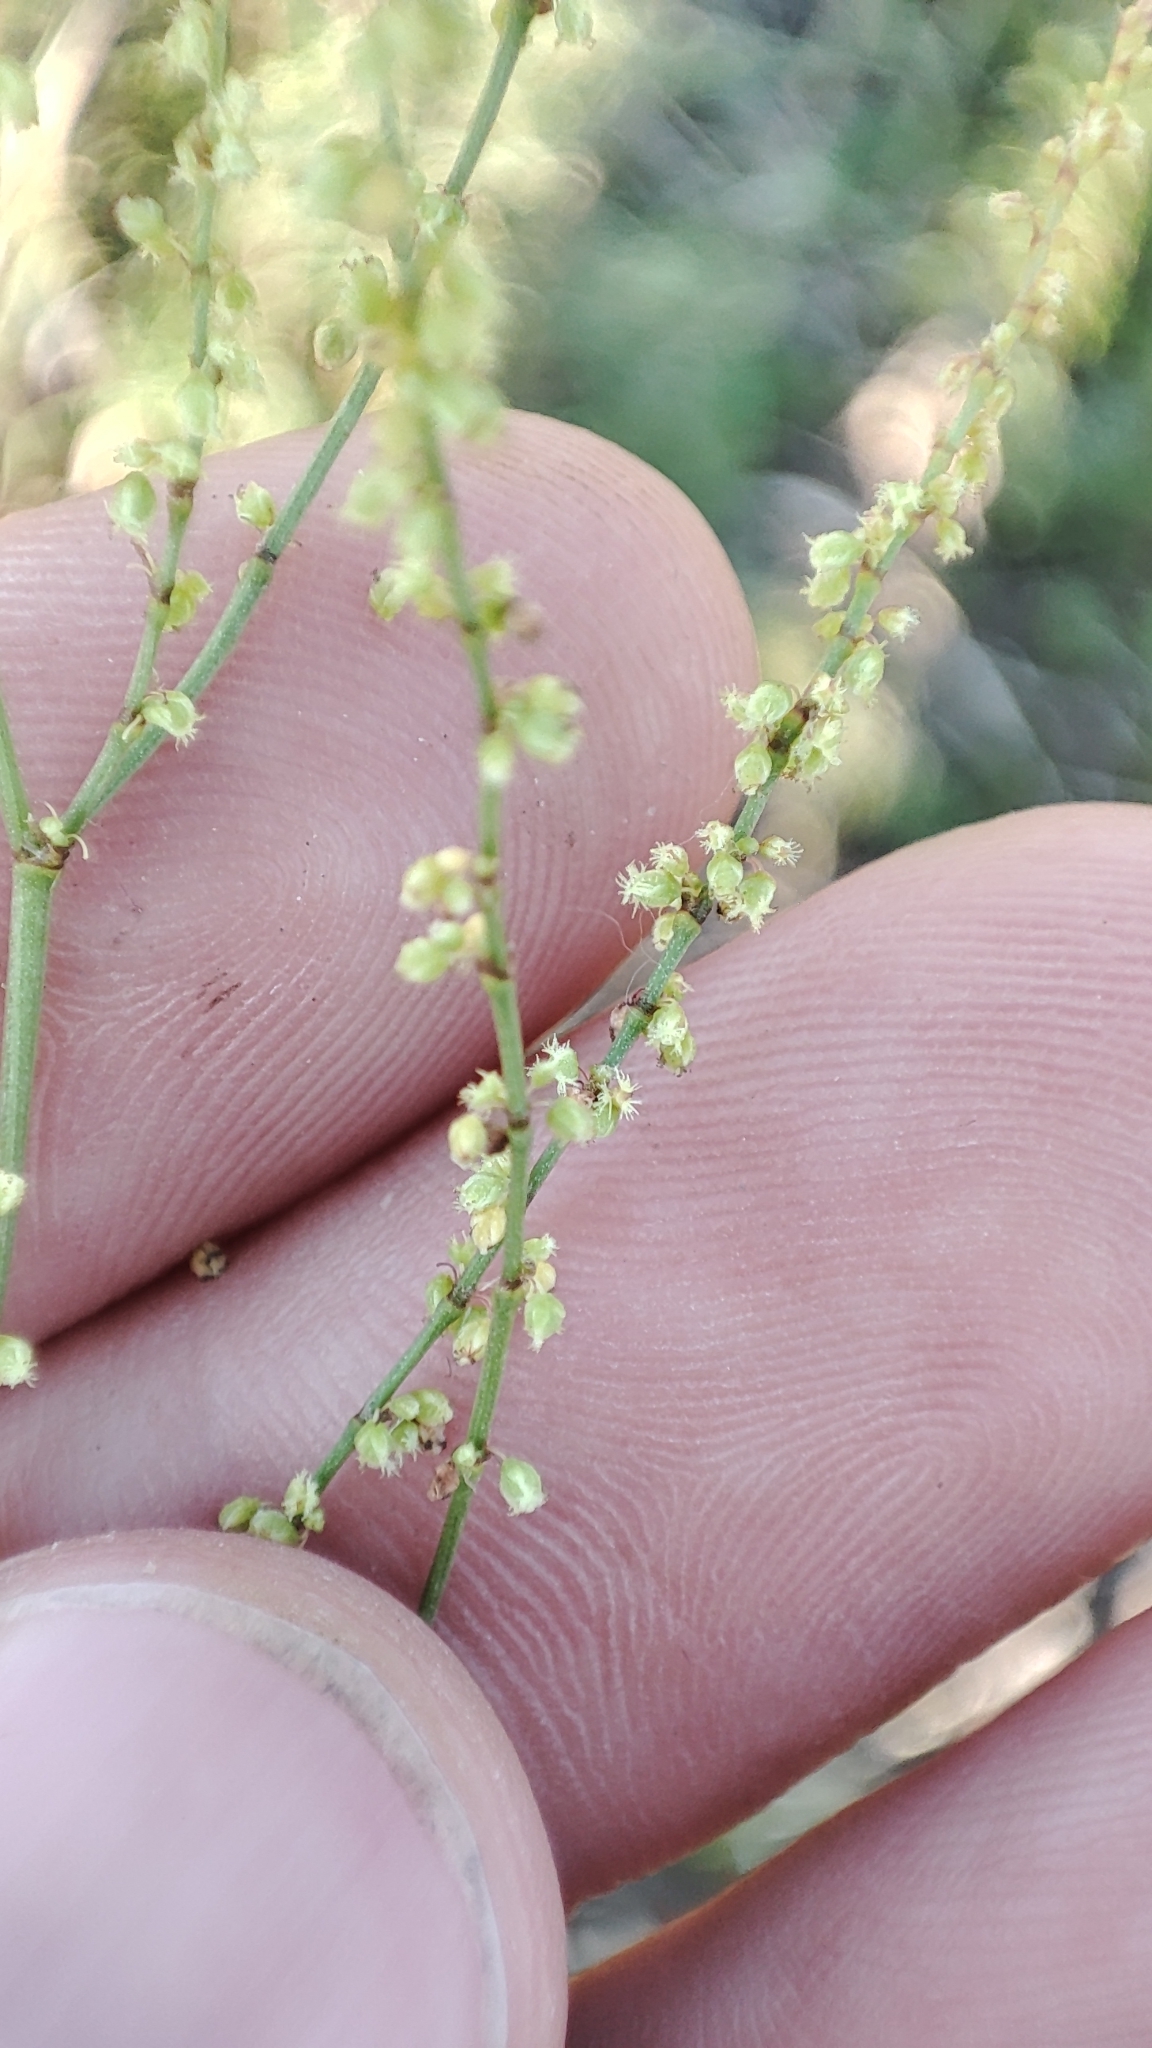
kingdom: Plantae
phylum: Tracheophyta
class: Magnoliopsida
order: Caryophyllales
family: Polygonaceae
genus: Rumex
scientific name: Rumex acetosella
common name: Common sheep sorrel
